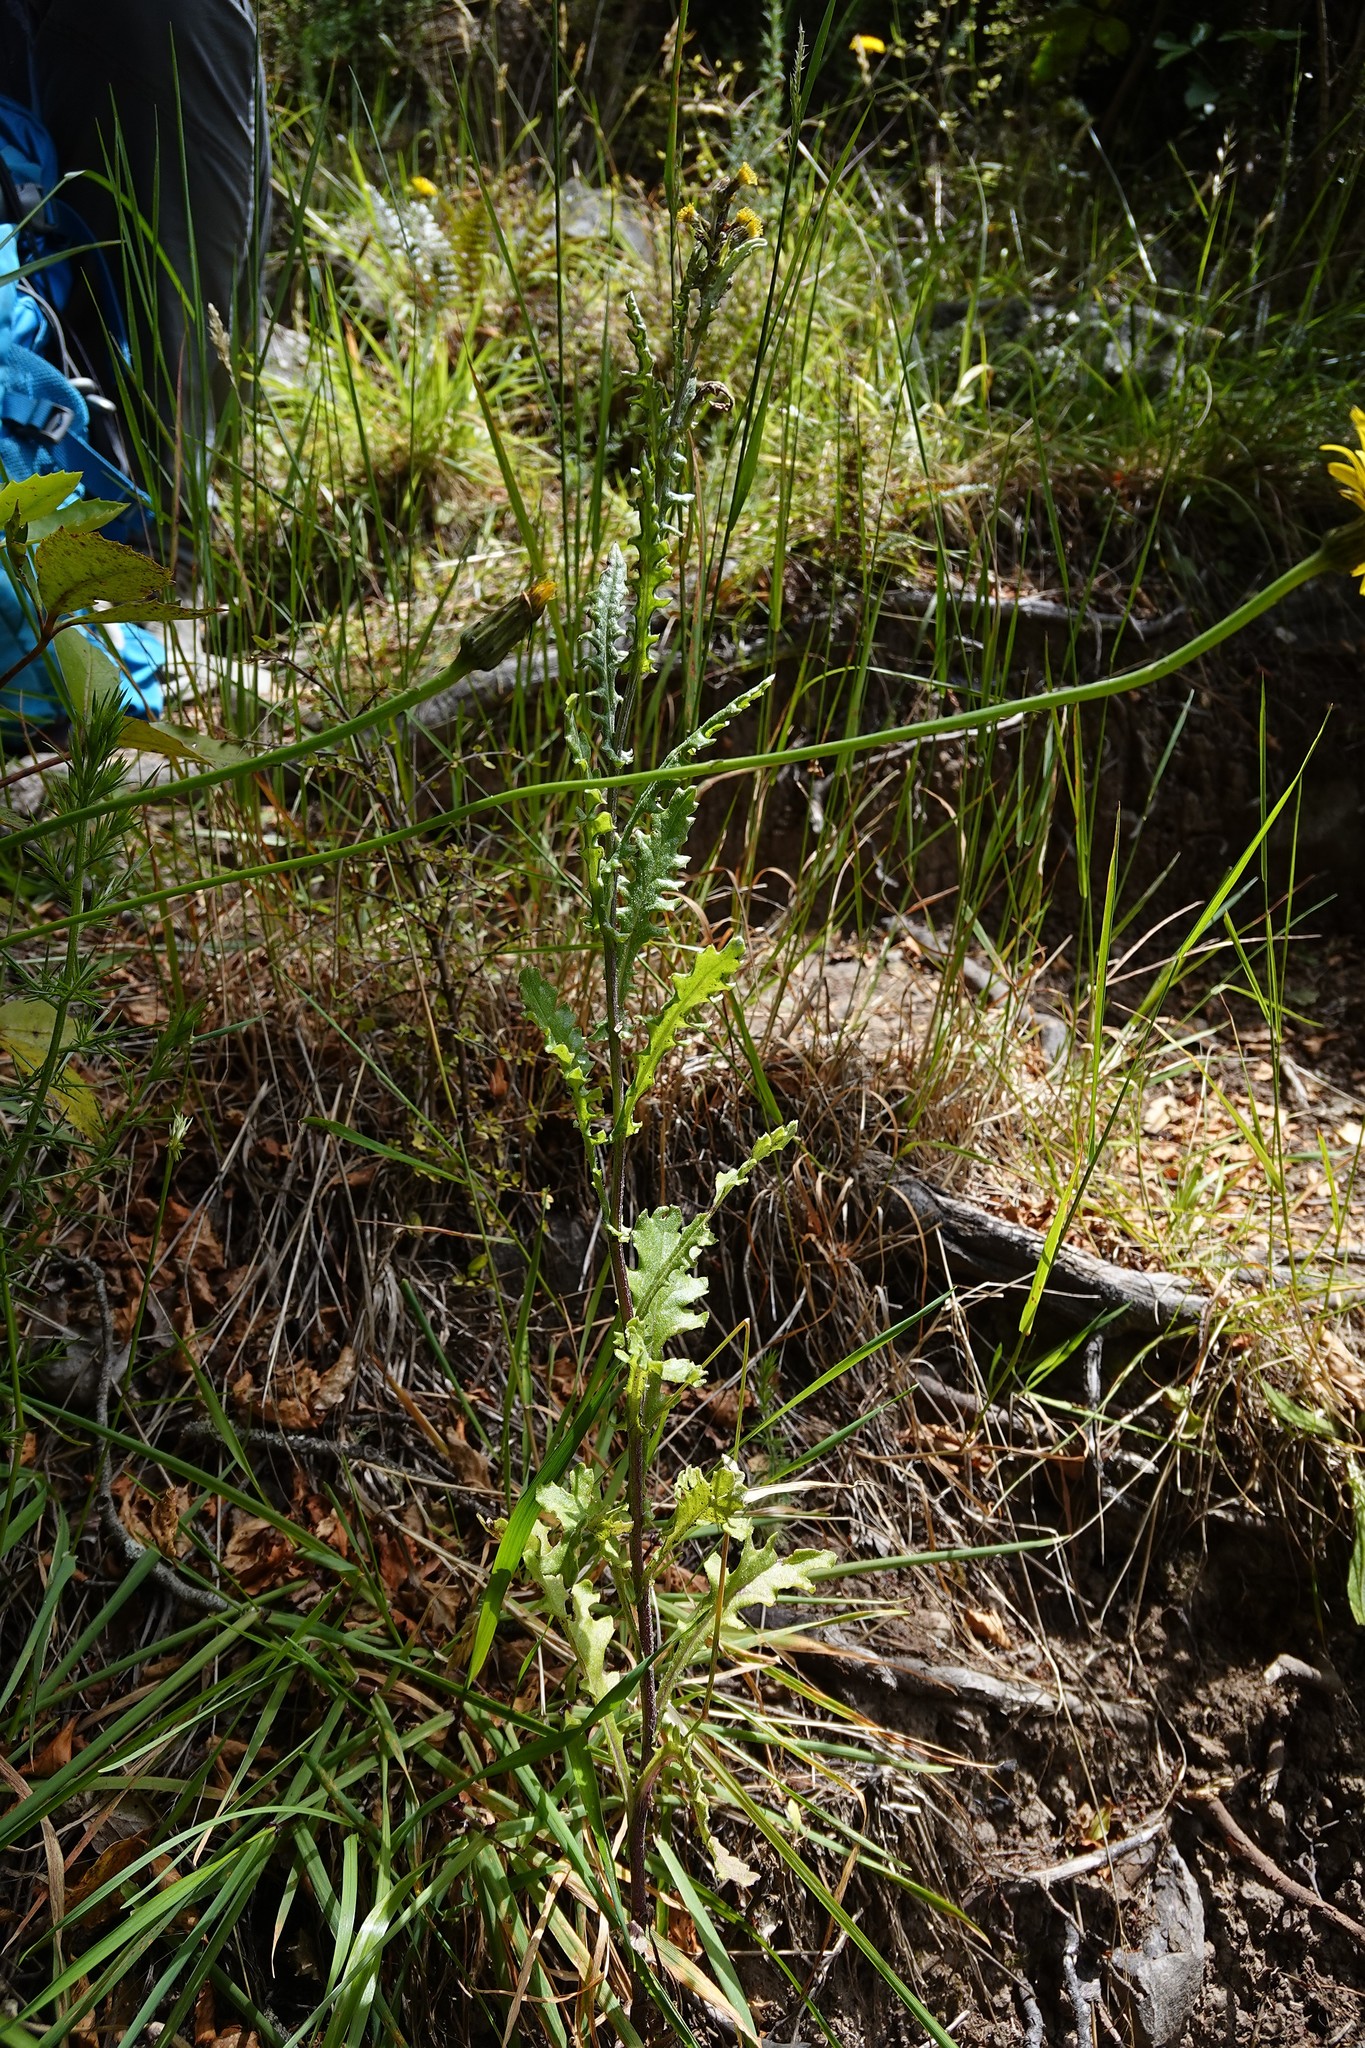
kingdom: Plantae
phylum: Tracheophyta
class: Magnoliopsida
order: Asterales
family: Asteraceae
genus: Senecio
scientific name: Senecio glomeratus
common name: Cutleaf burnweed
